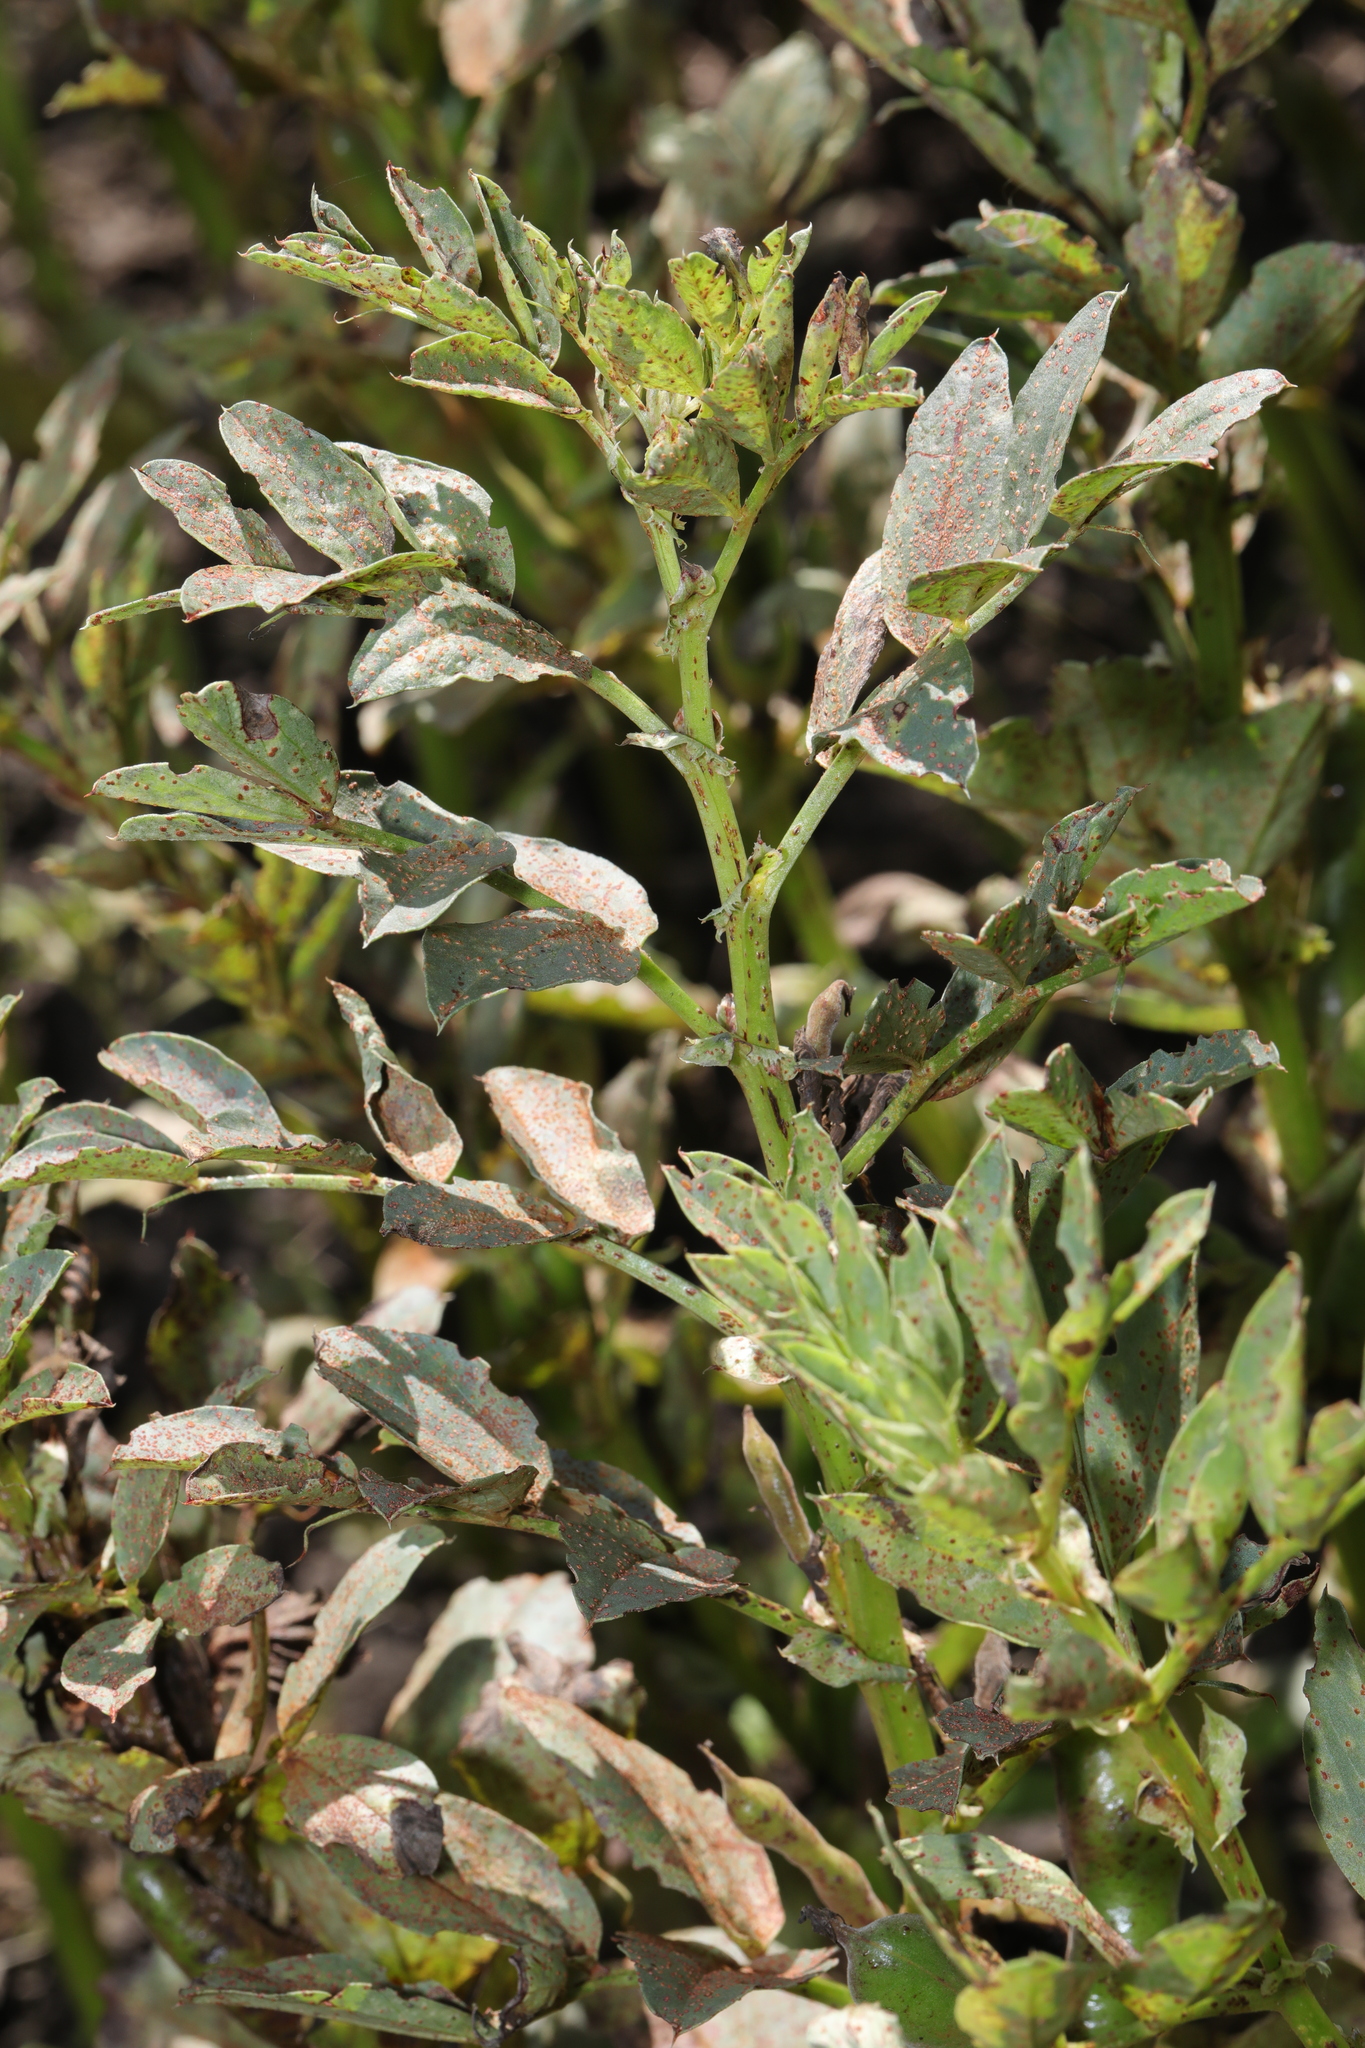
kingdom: Plantae
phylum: Tracheophyta
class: Magnoliopsida
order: Fabales
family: Fabaceae
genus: Vicia
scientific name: Vicia faba
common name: Broad bean
